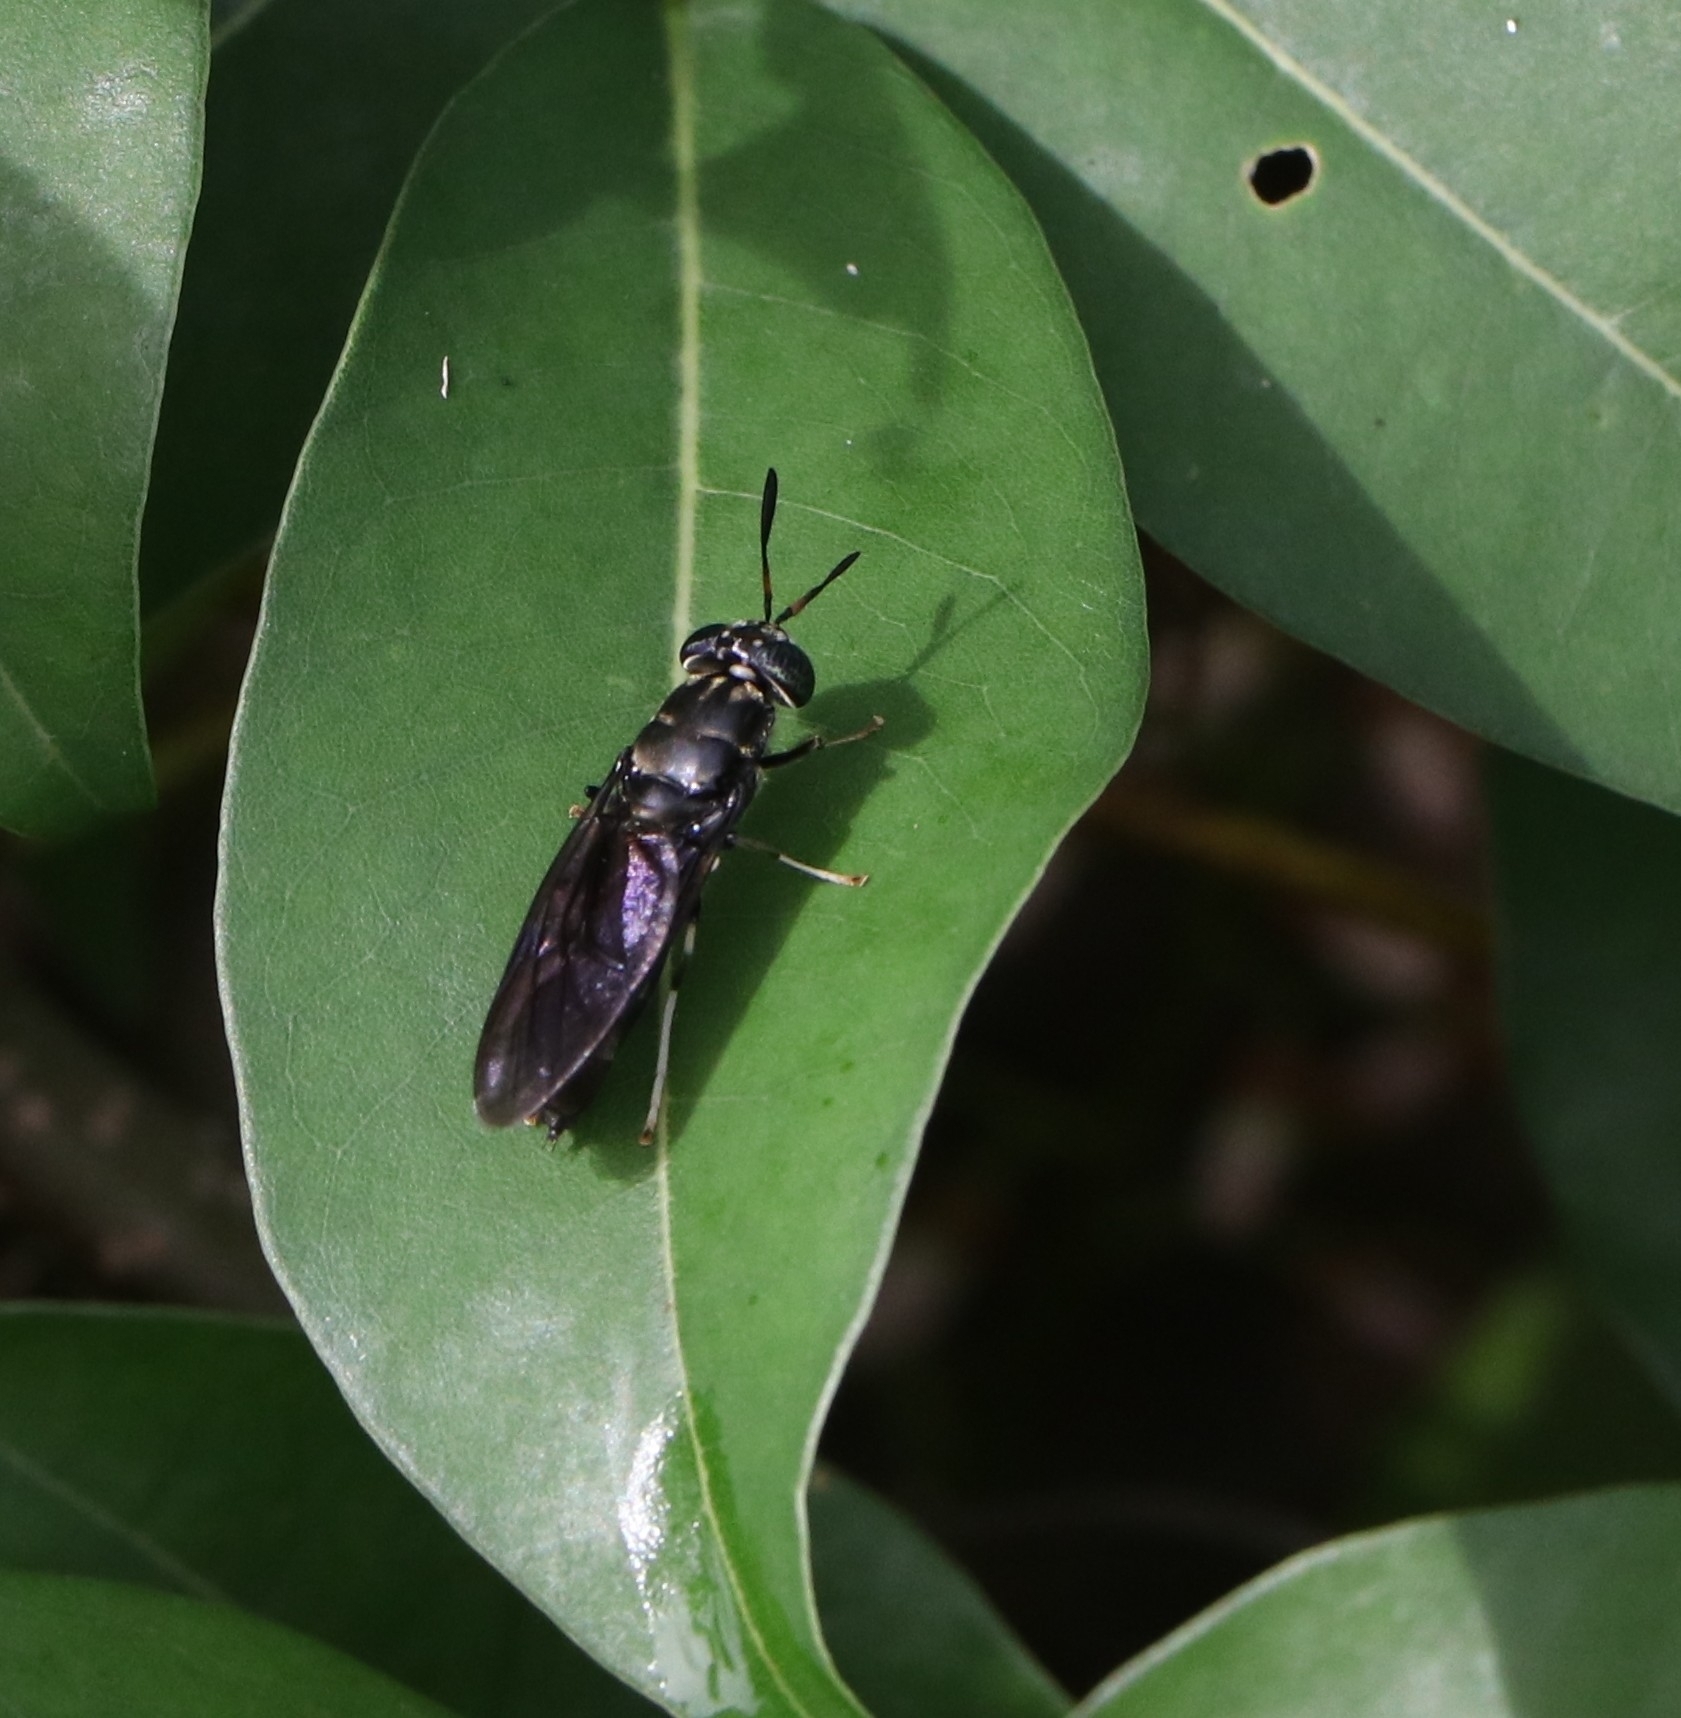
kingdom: Animalia
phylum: Arthropoda
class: Insecta
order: Diptera
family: Stratiomyidae
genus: Hermetia
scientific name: Hermetia illucens
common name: Black soldier fly
